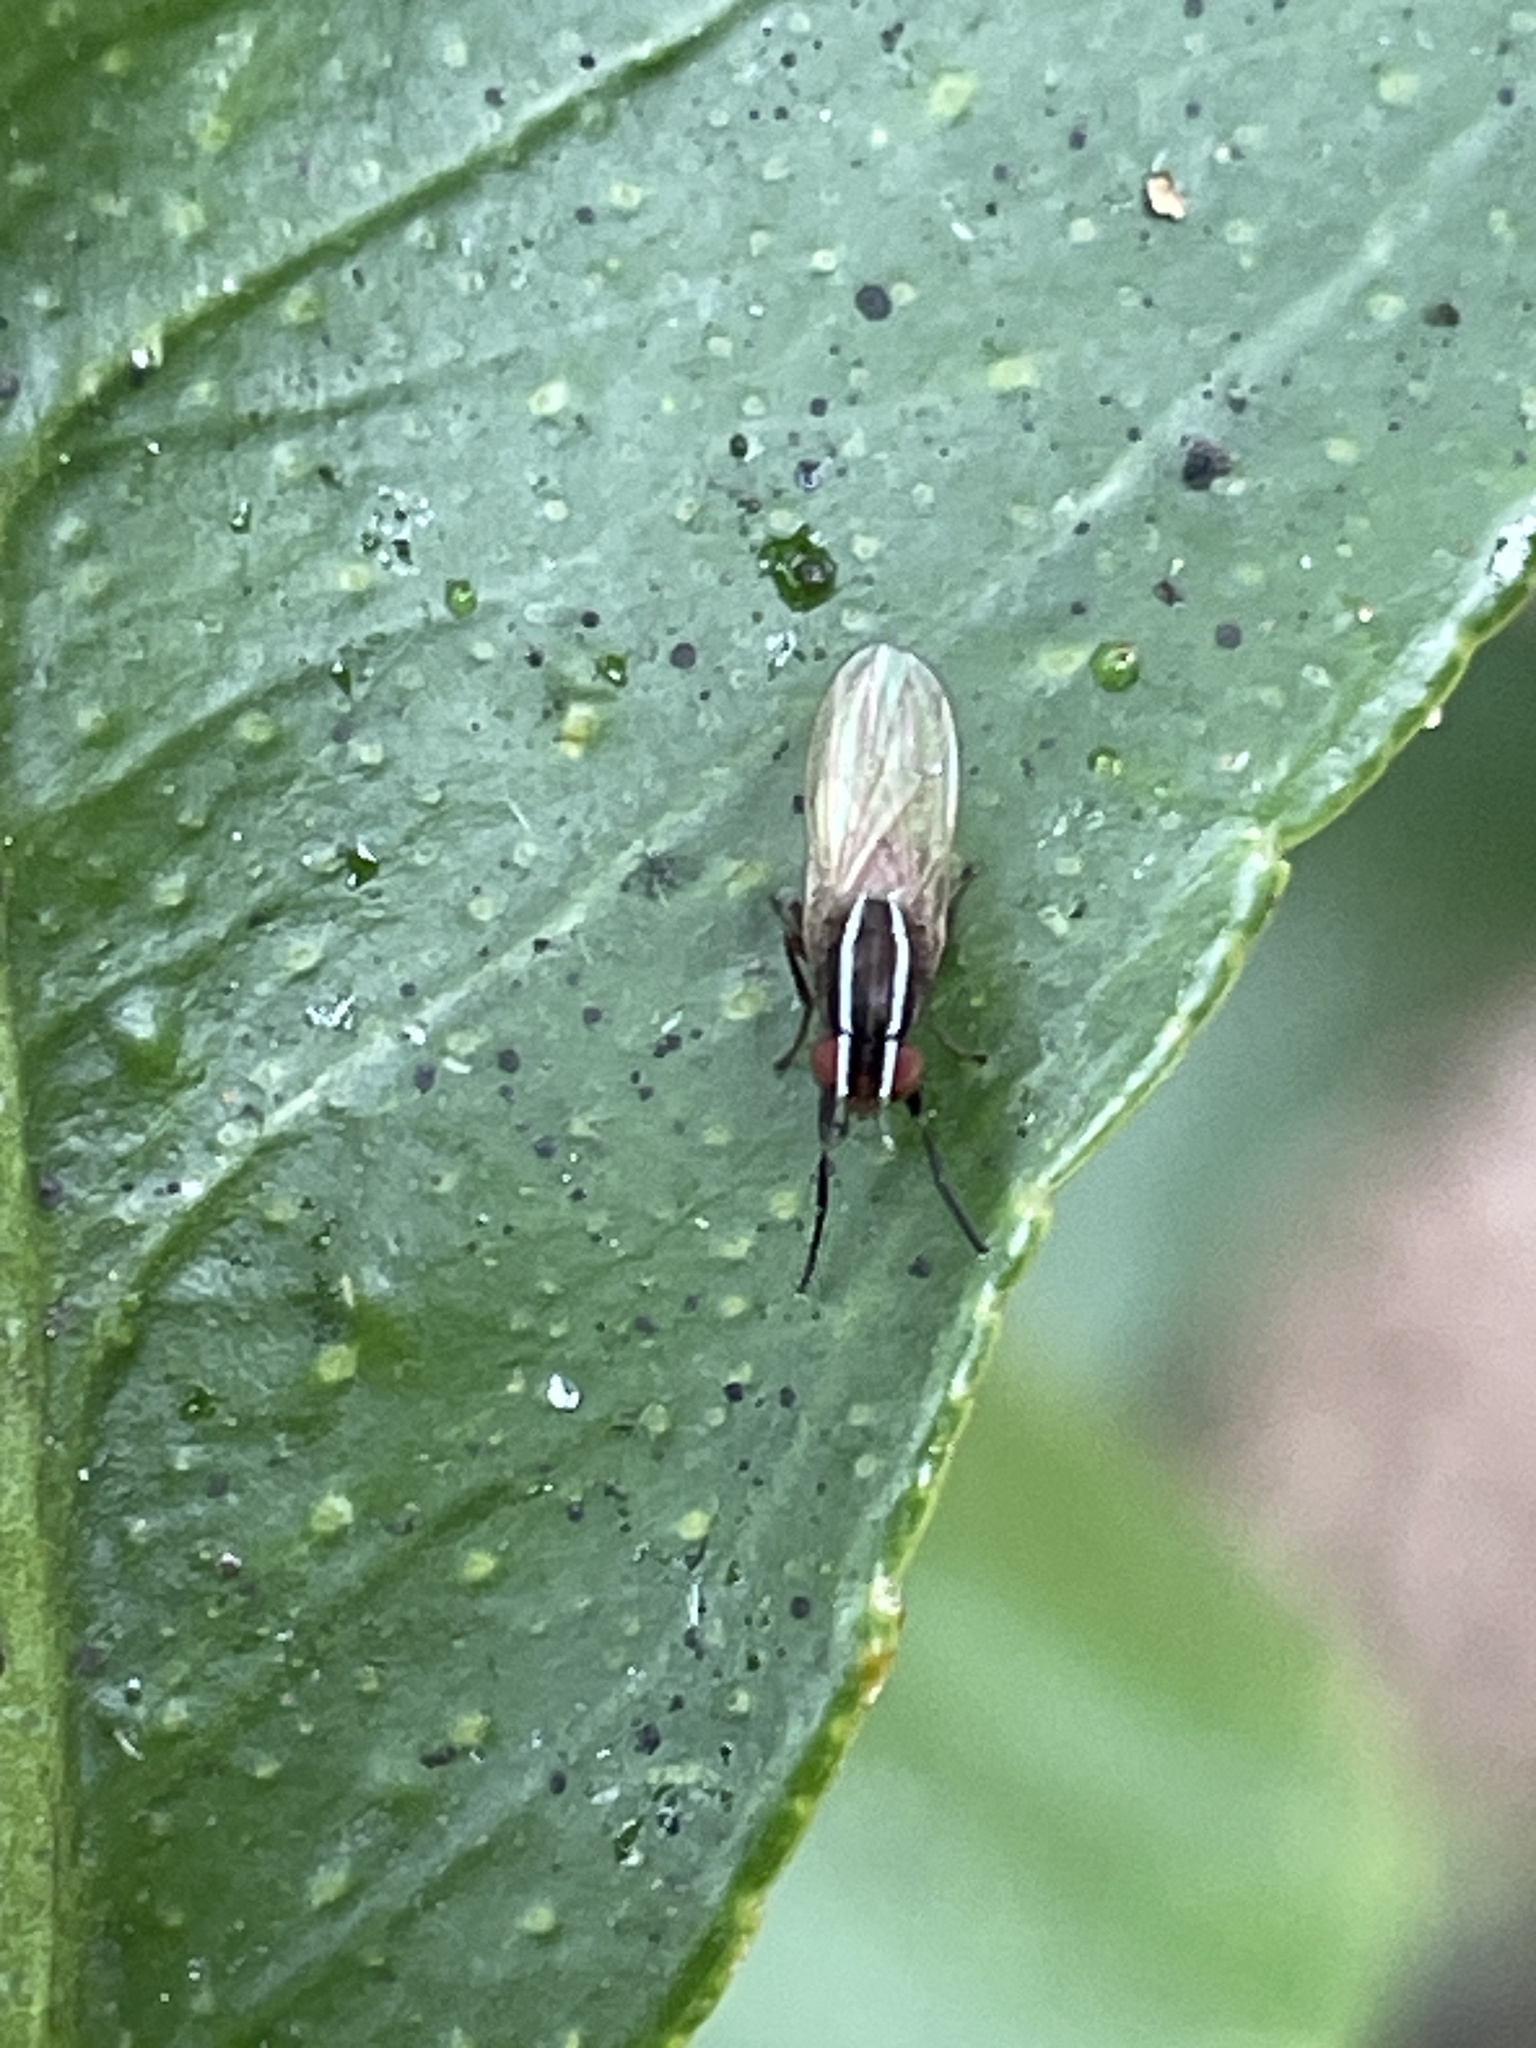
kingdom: Animalia
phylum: Arthropoda
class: Insecta
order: Diptera
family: Lauxaniidae
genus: Poecilohetaerus
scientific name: Poecilohetaerus schineri
